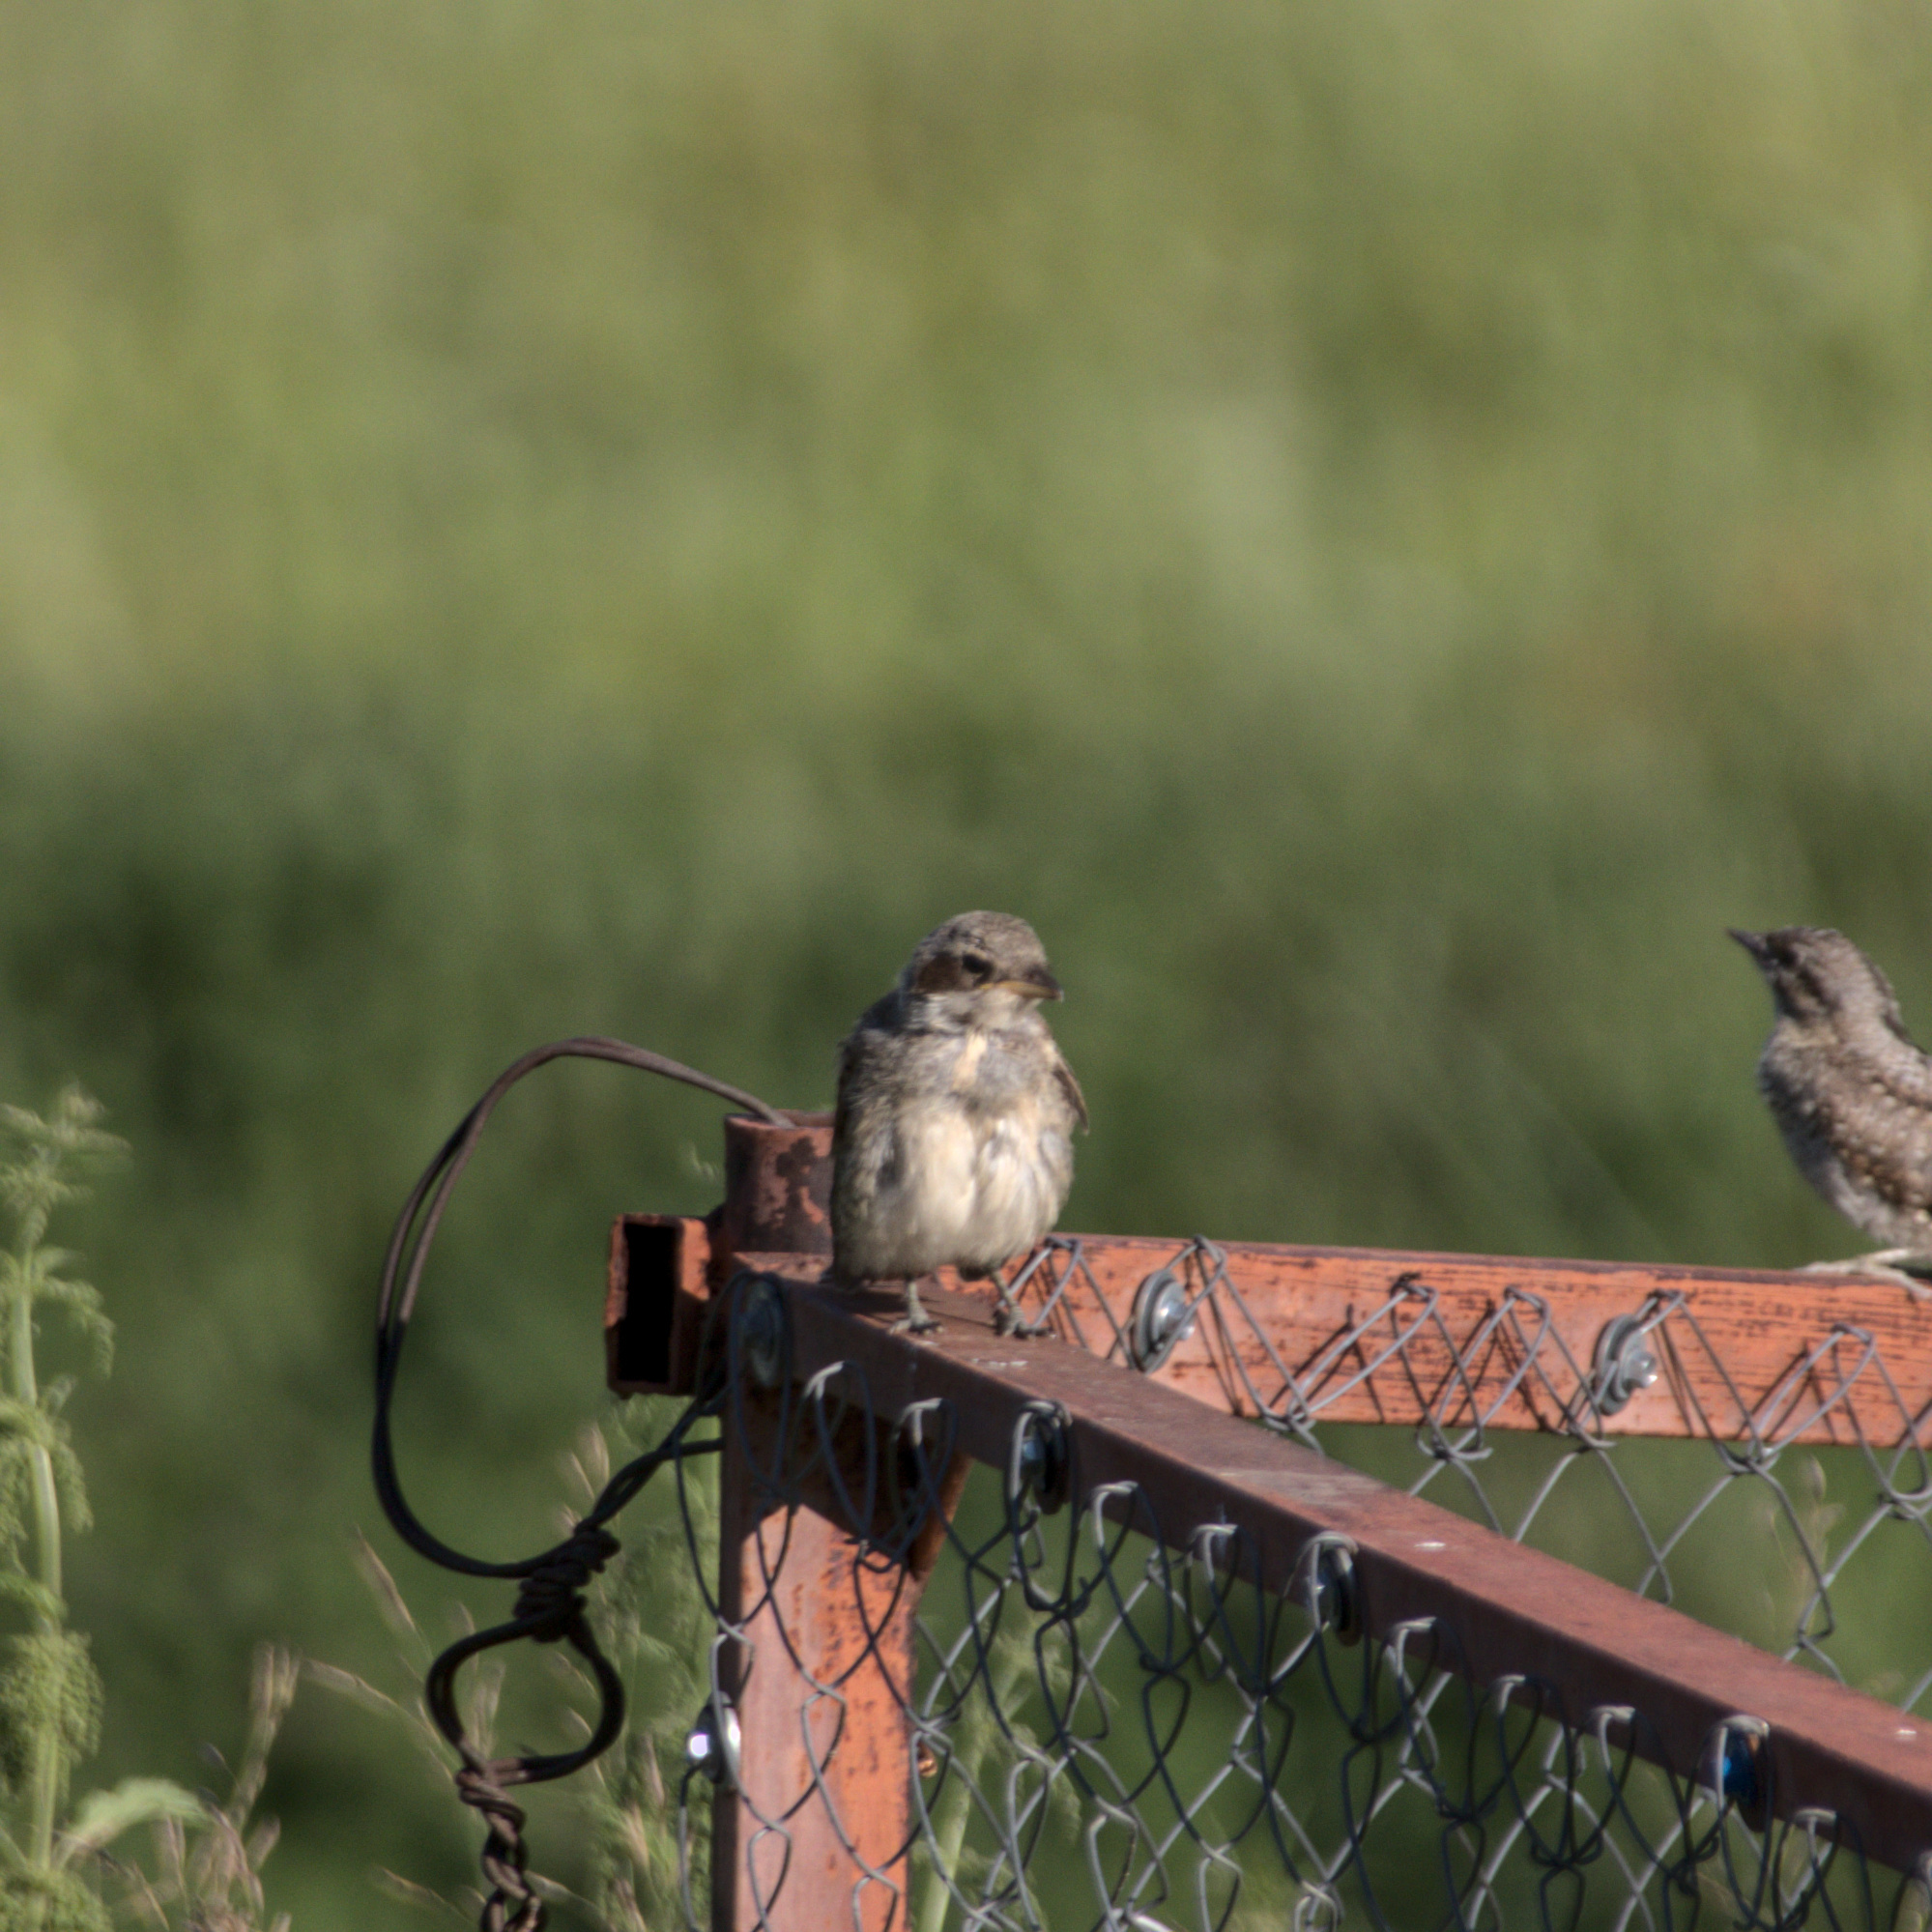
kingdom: Animalia
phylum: Chordata
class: Aves
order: Passeriformes
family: Laniidae
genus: Lanius
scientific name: Lanius collurio
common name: Red-backed shrike
